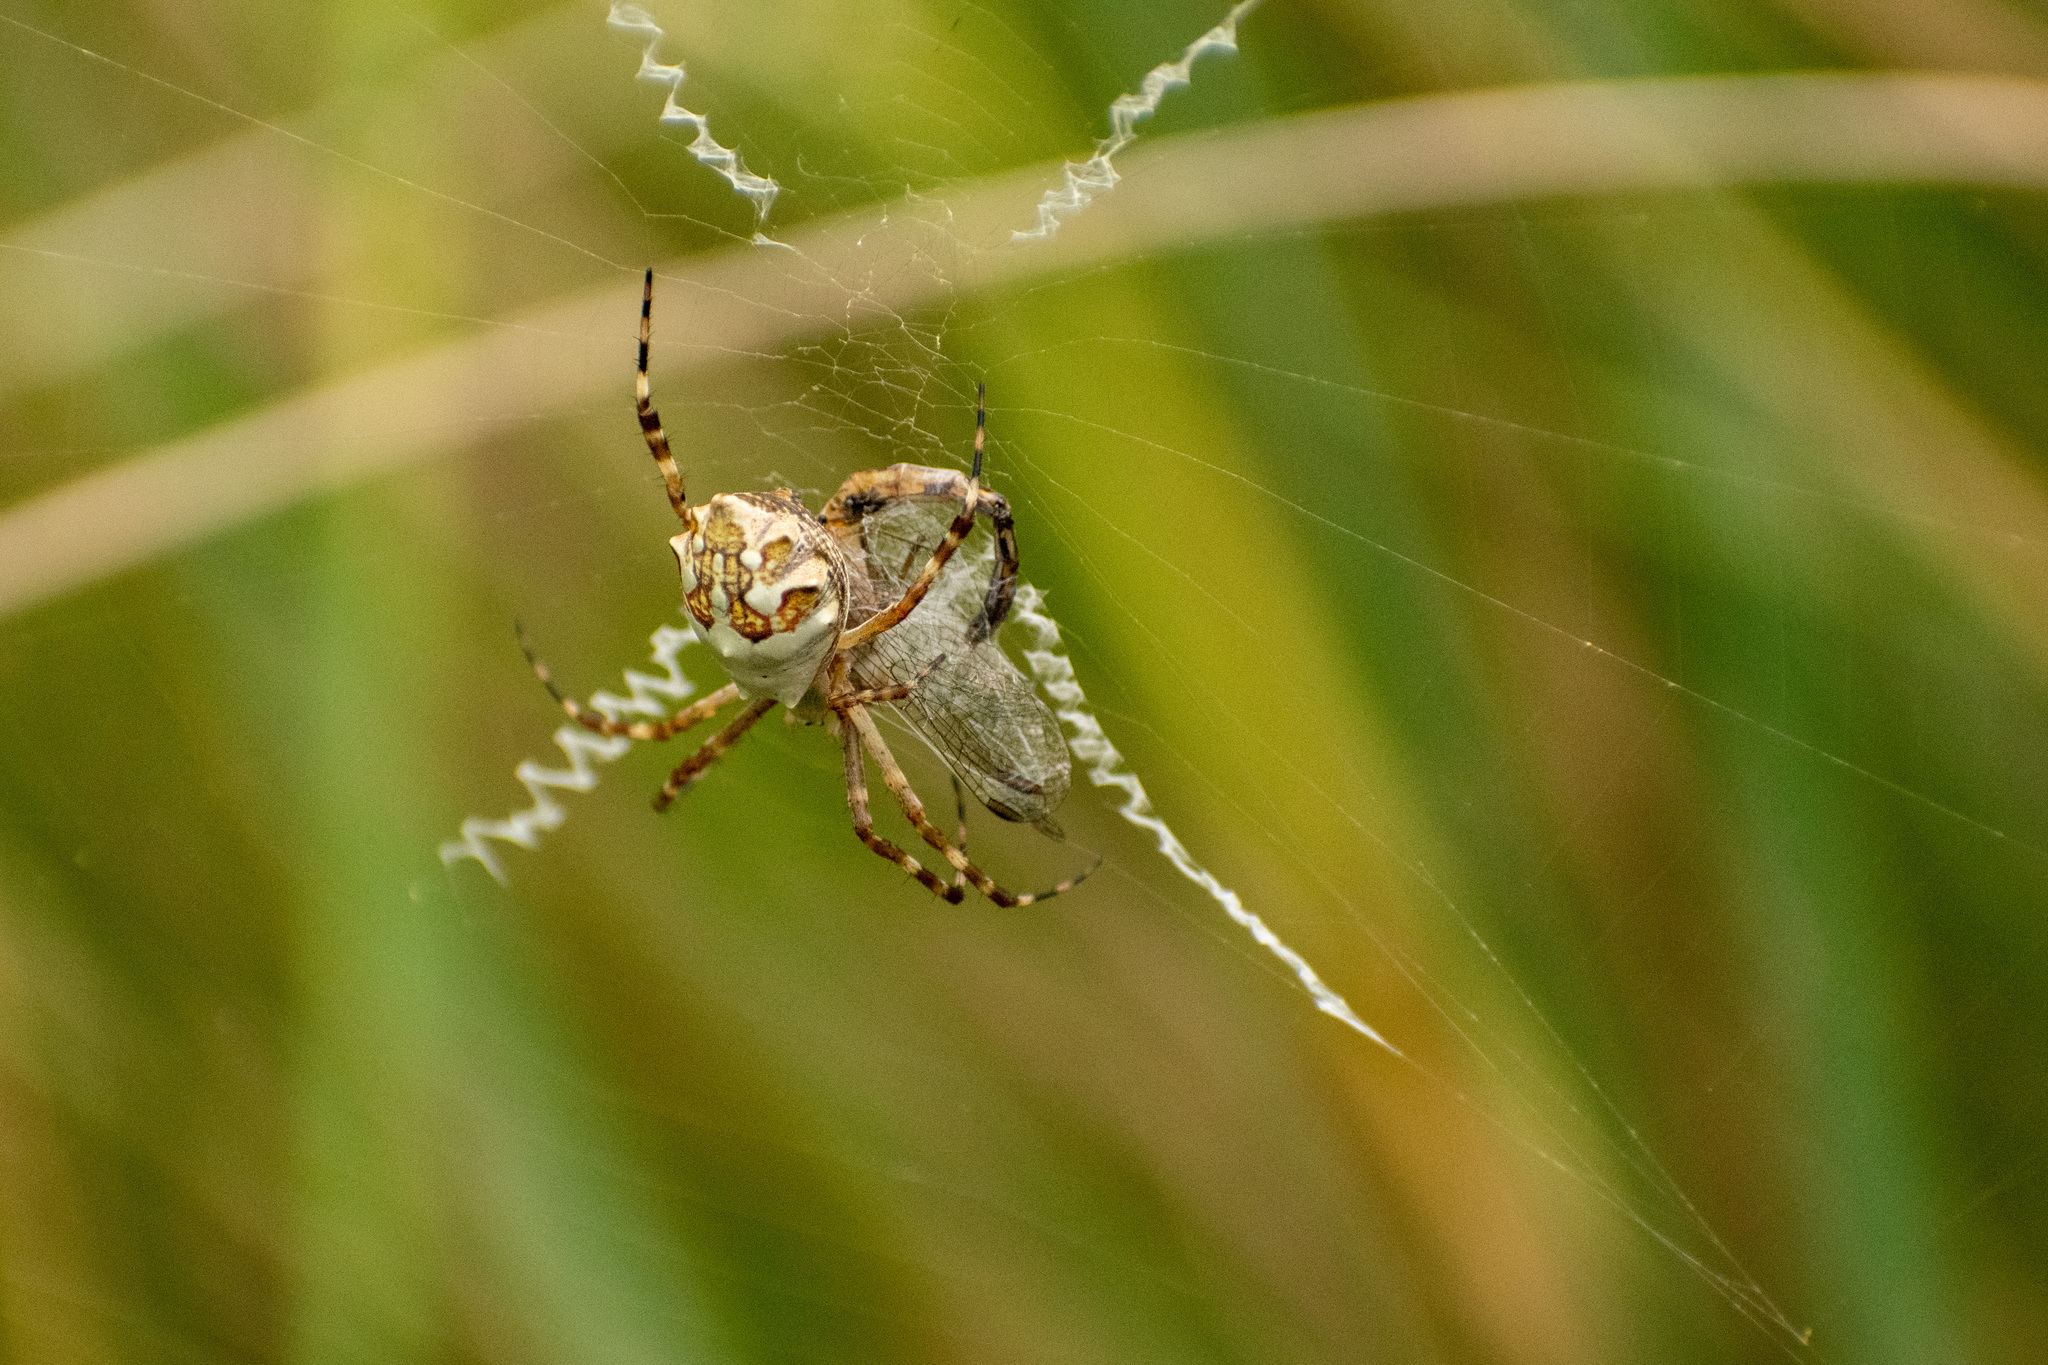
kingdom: Animalia
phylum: Arthropoda
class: Arachnida
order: Araneae
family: Araneidae
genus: Argiope
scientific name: Argiope argentata
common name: Orb weavers
